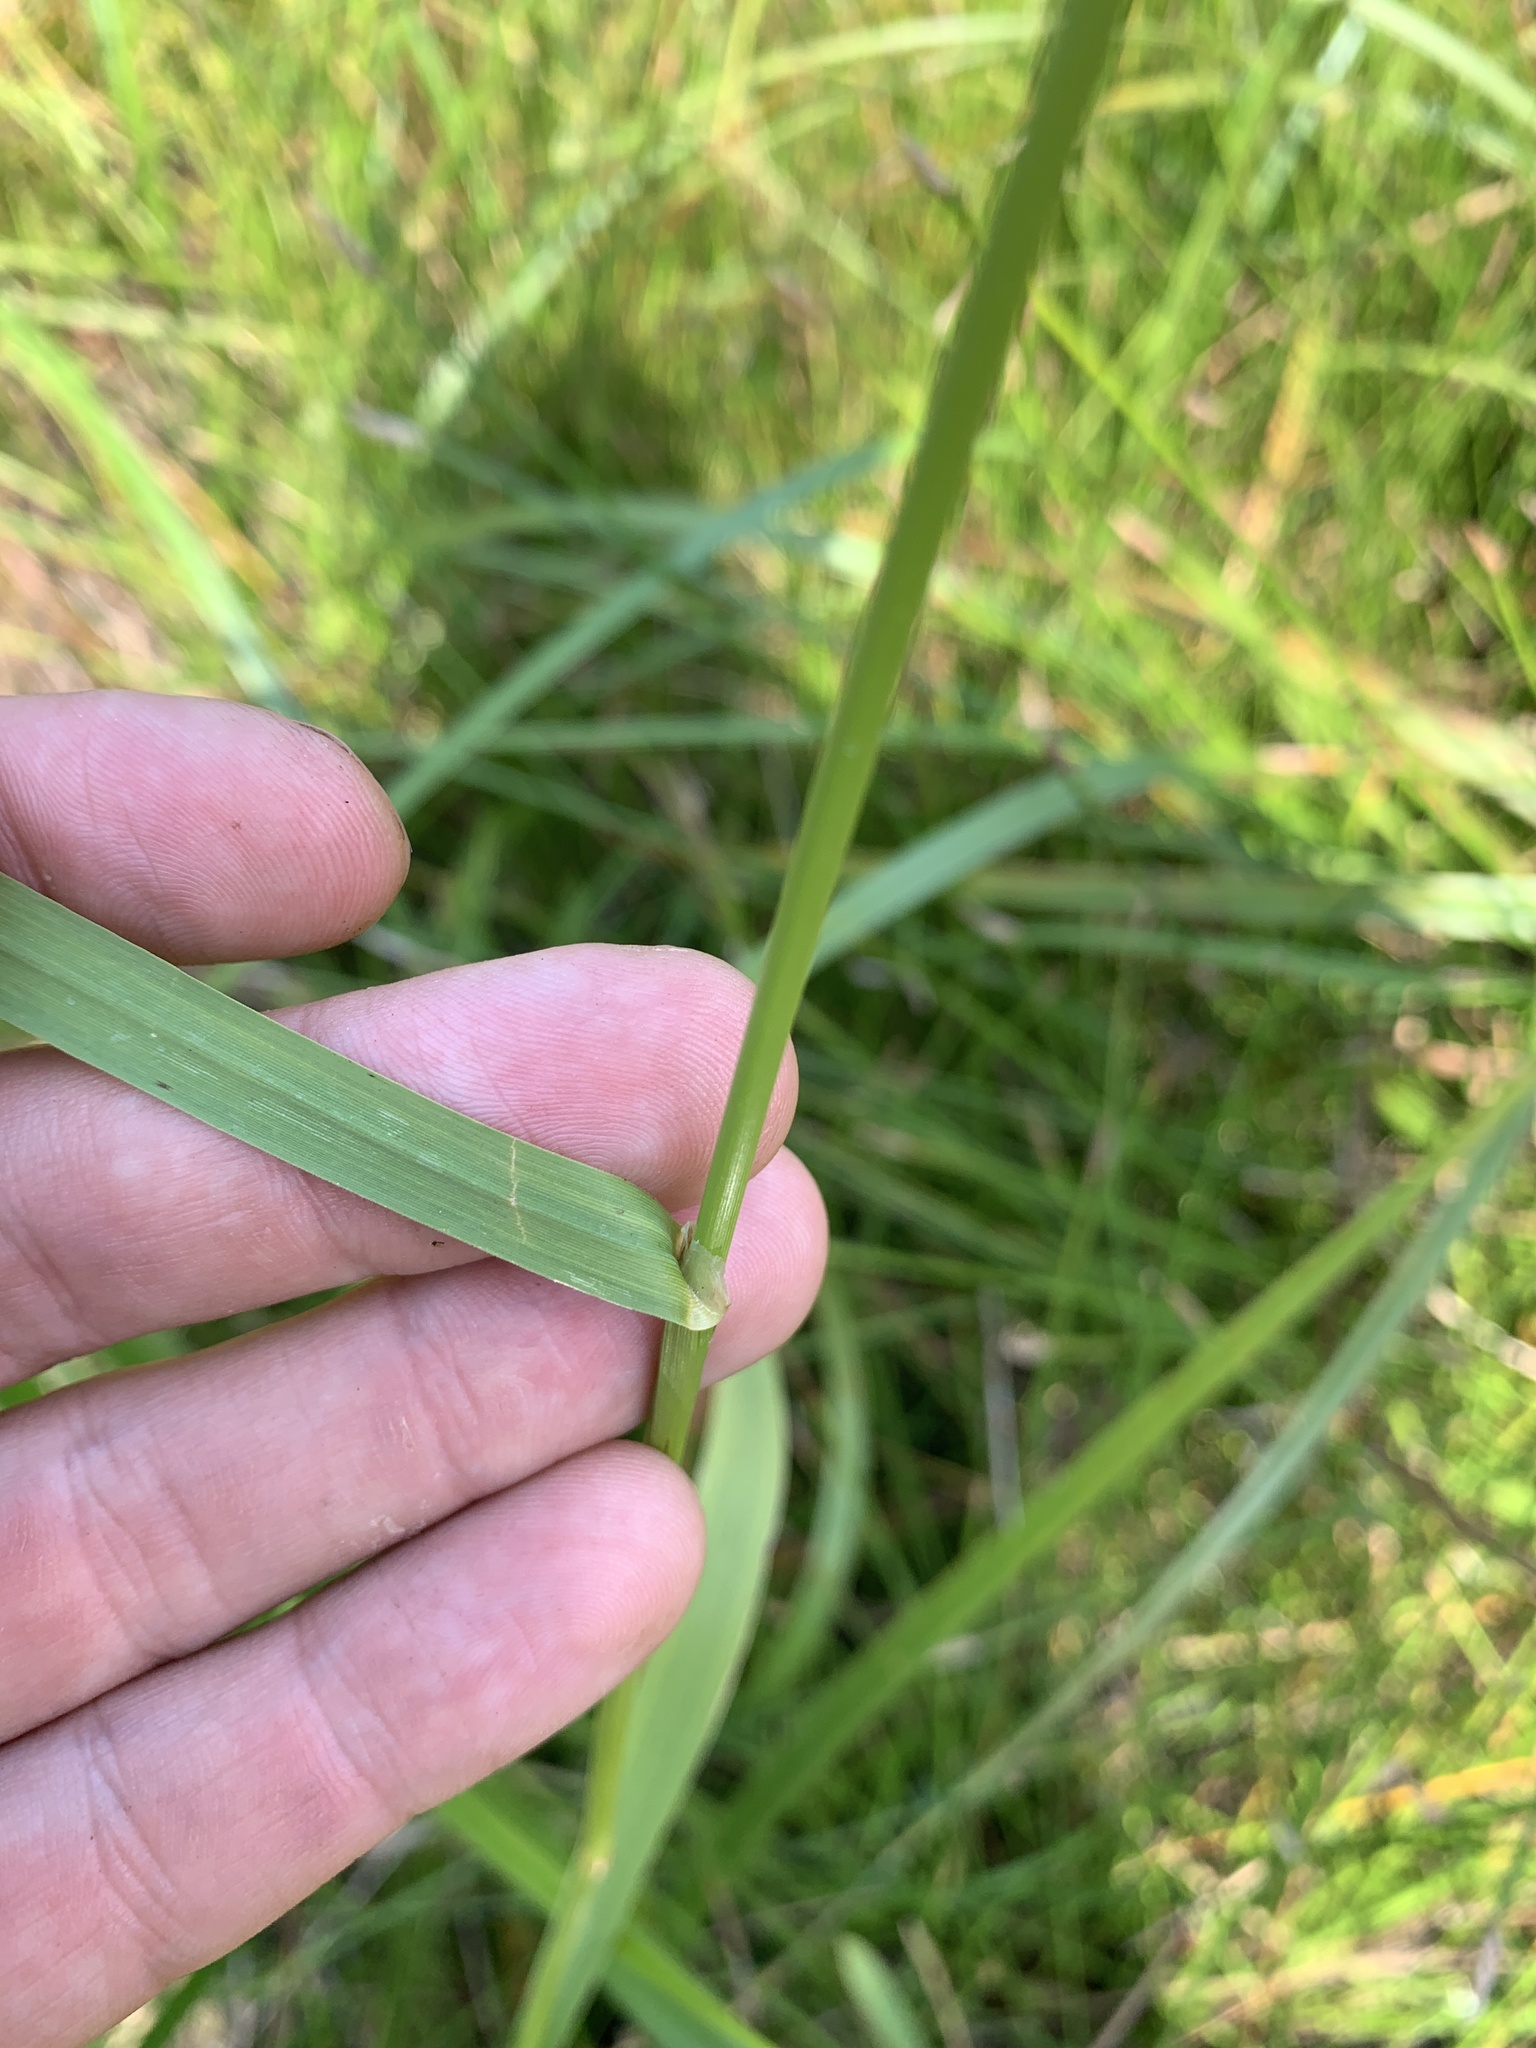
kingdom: Plantae
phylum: Tracheophyta
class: Liliopsida
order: Poales
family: Poaceae
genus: Glyceria
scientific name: Glyceria grandis
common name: American glyceria
